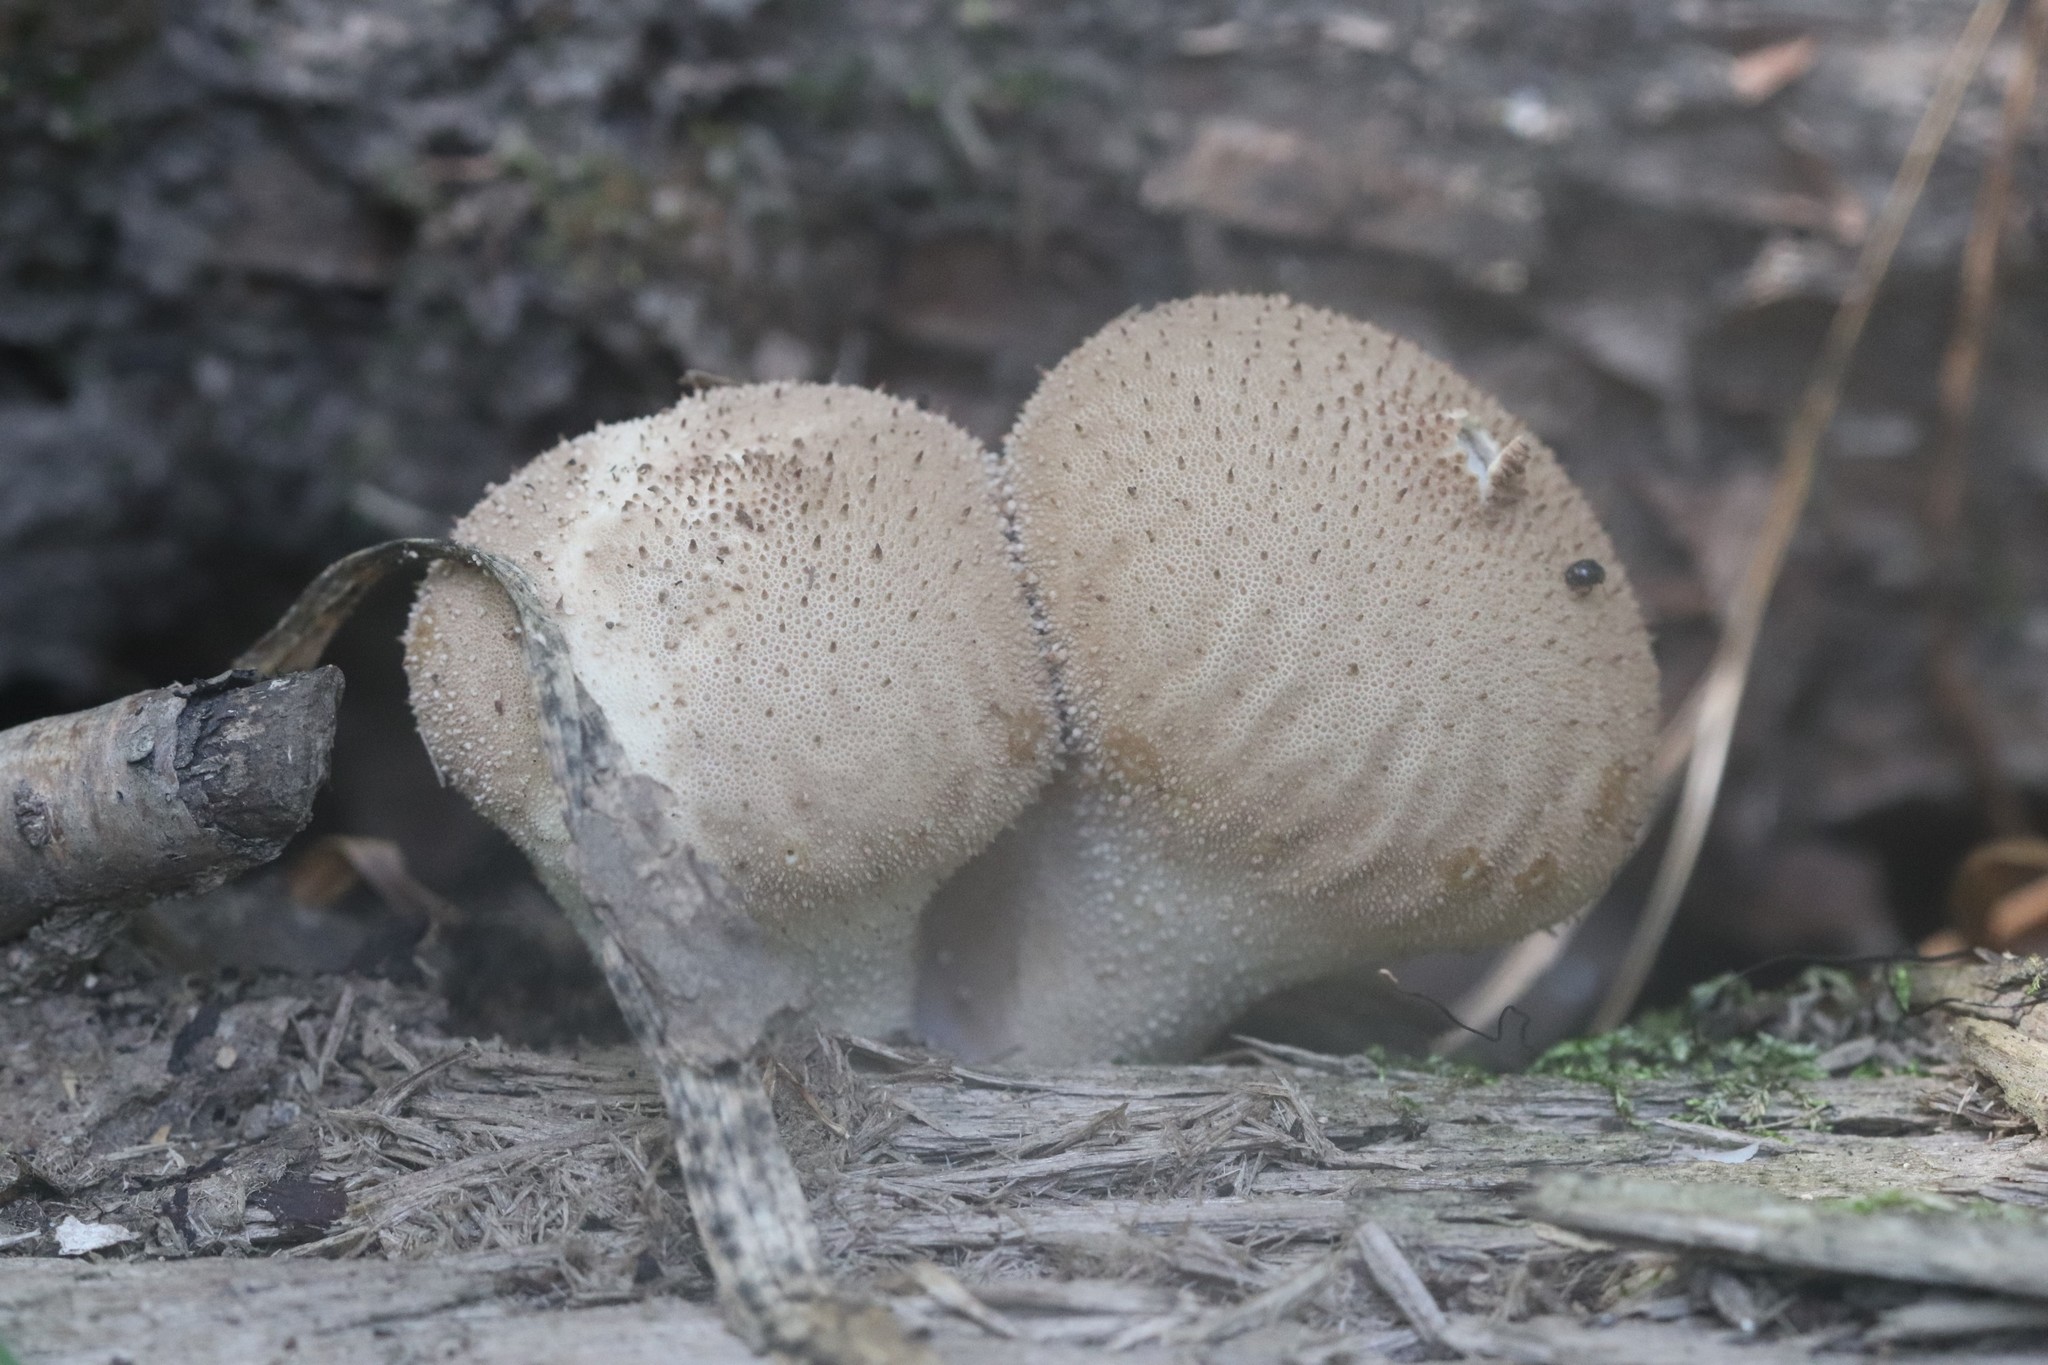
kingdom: Fungi
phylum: Basidiomycota
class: Agaricomycetes
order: Agaricales
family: Lycoperdaceae
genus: Lycoperdon
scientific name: Lycoperdon perlatum
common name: Common puffball
